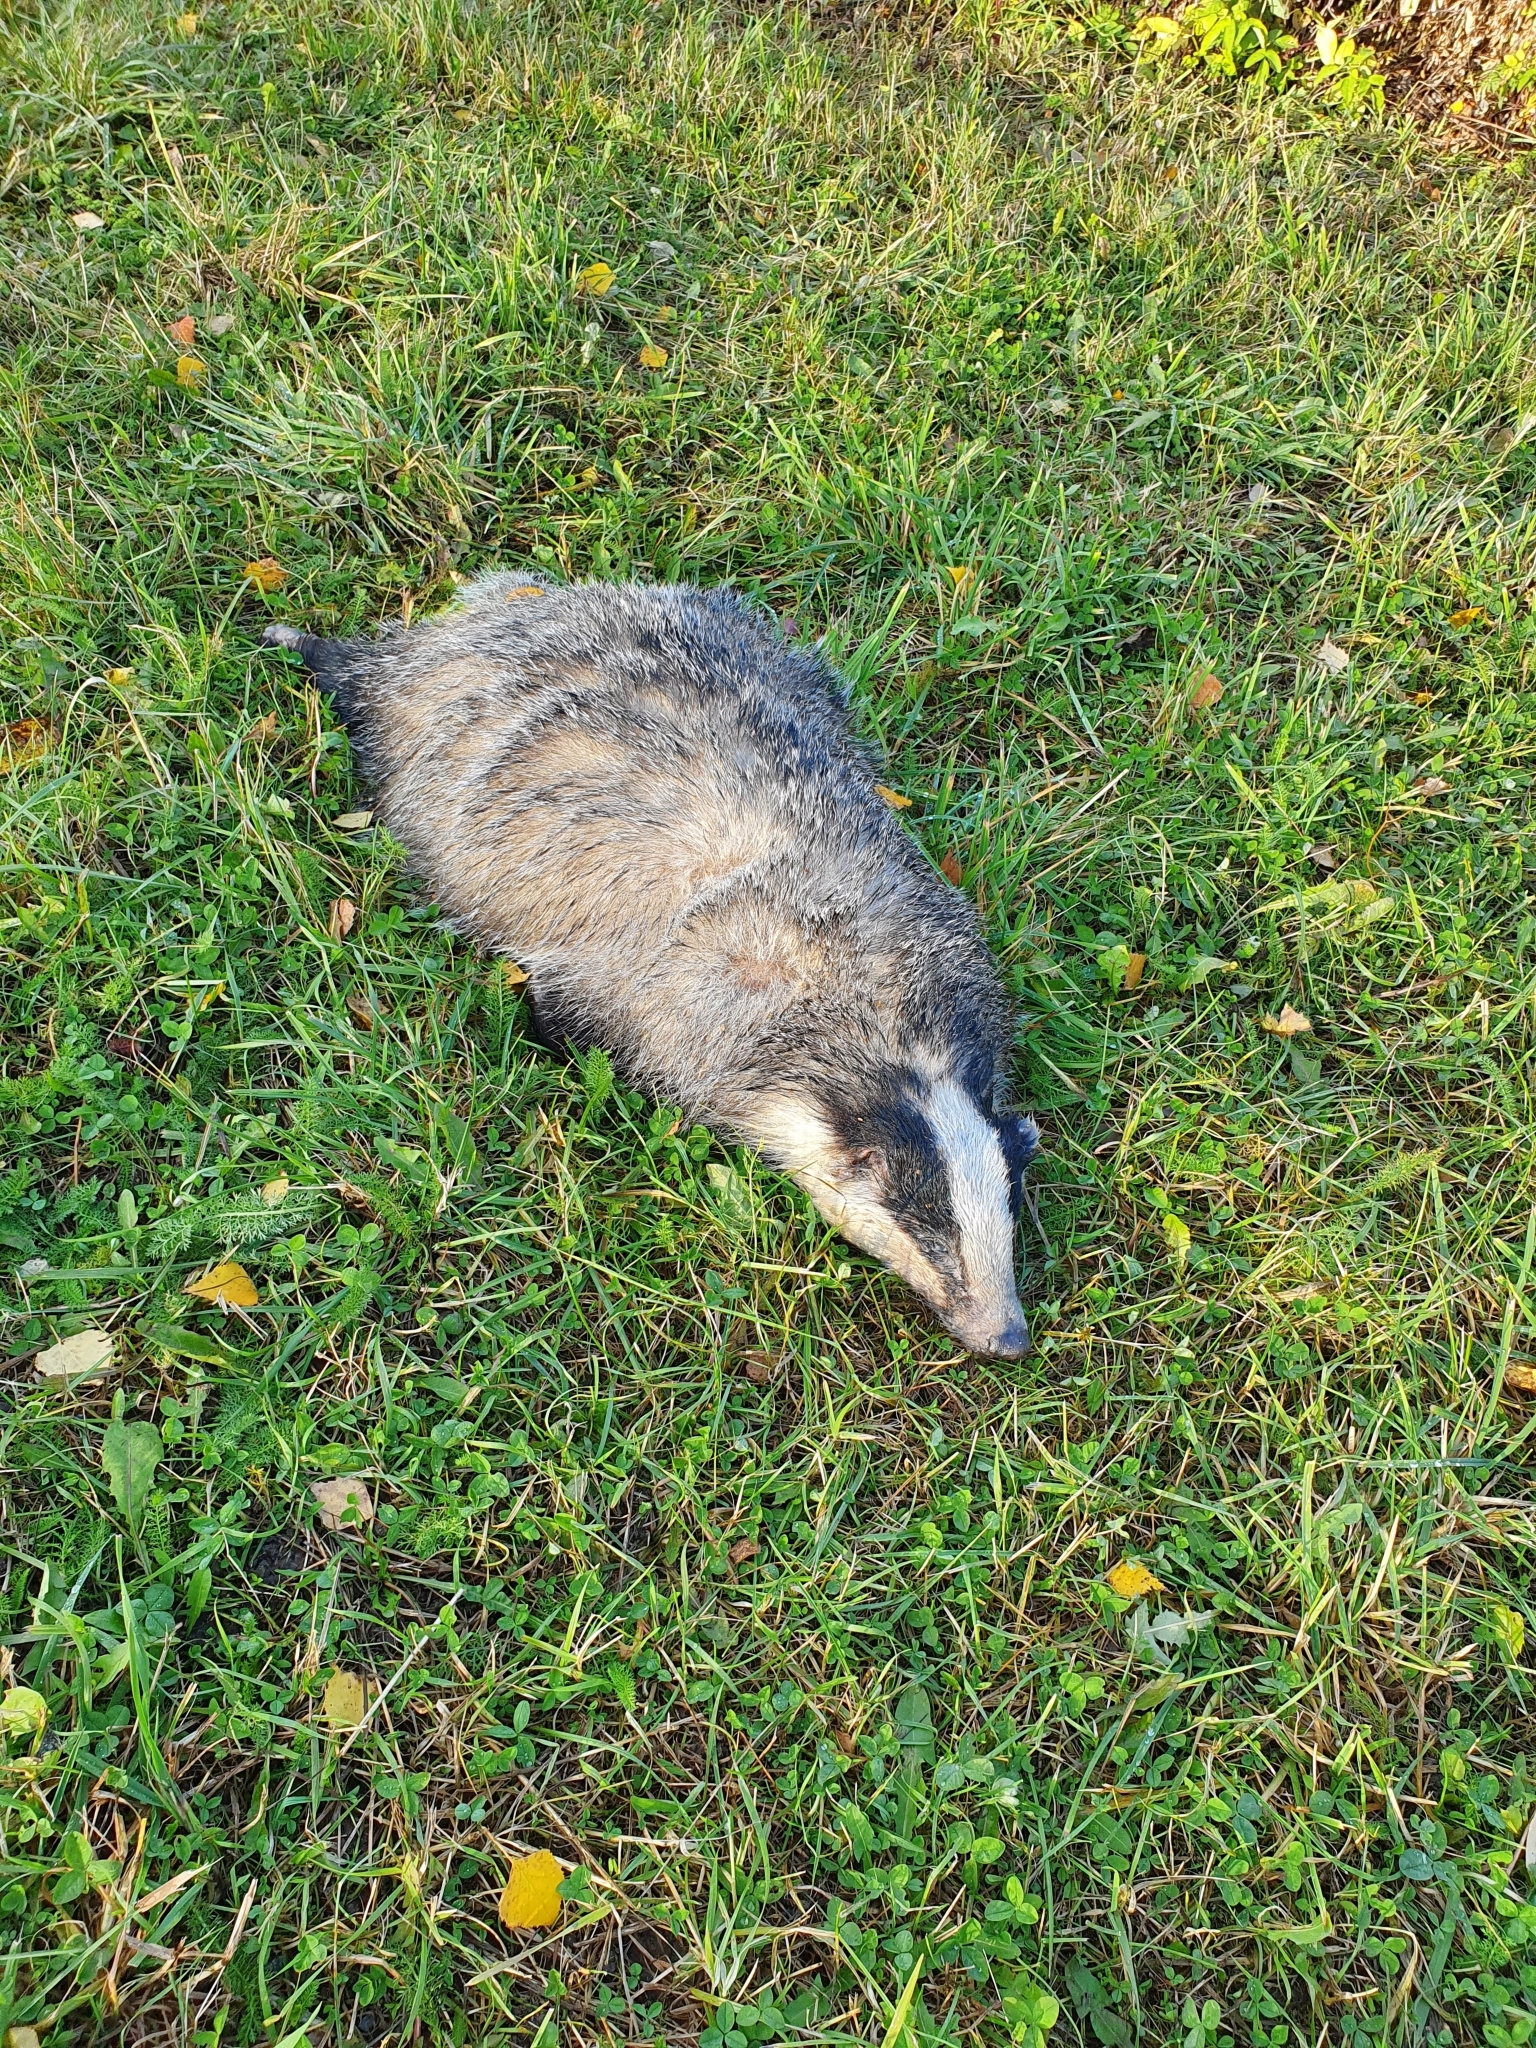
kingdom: Animalia
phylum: Chordata
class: Mammalia
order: Carnivora
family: Mustelidae
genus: Meles
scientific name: Meles meles
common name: Eurasian badger
